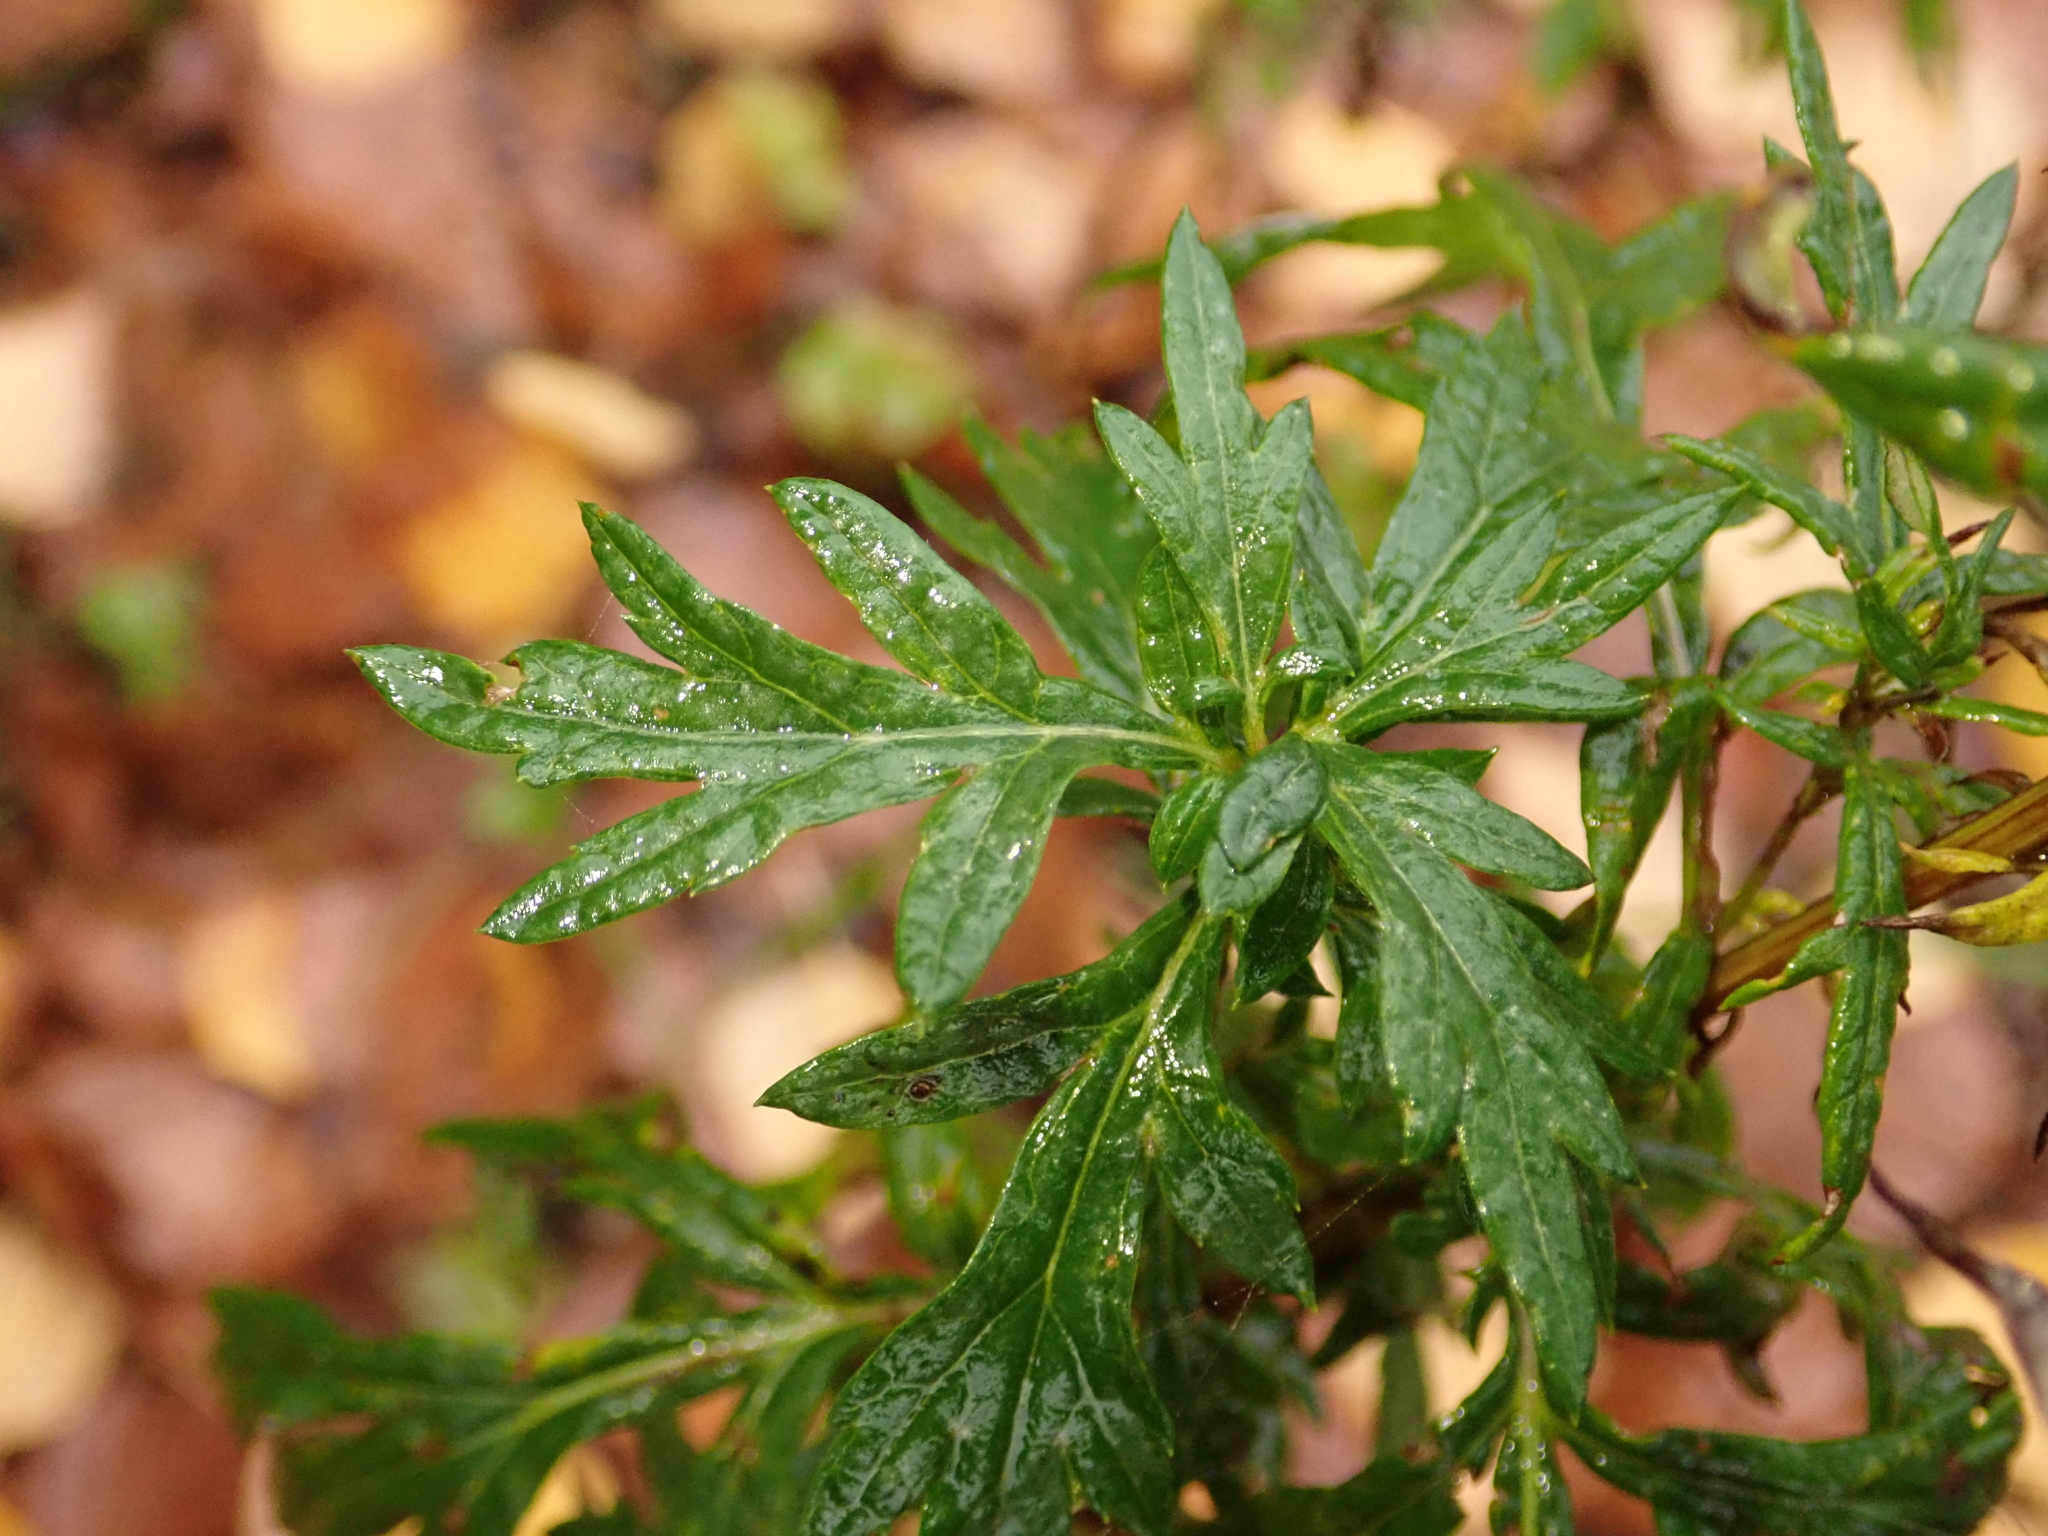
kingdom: Plantae
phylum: Tracheophyta
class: Magnoliopsida
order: Asterales
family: Asteraceae
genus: Artemisia
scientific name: Artemisia vulgaris
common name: Mugwort
